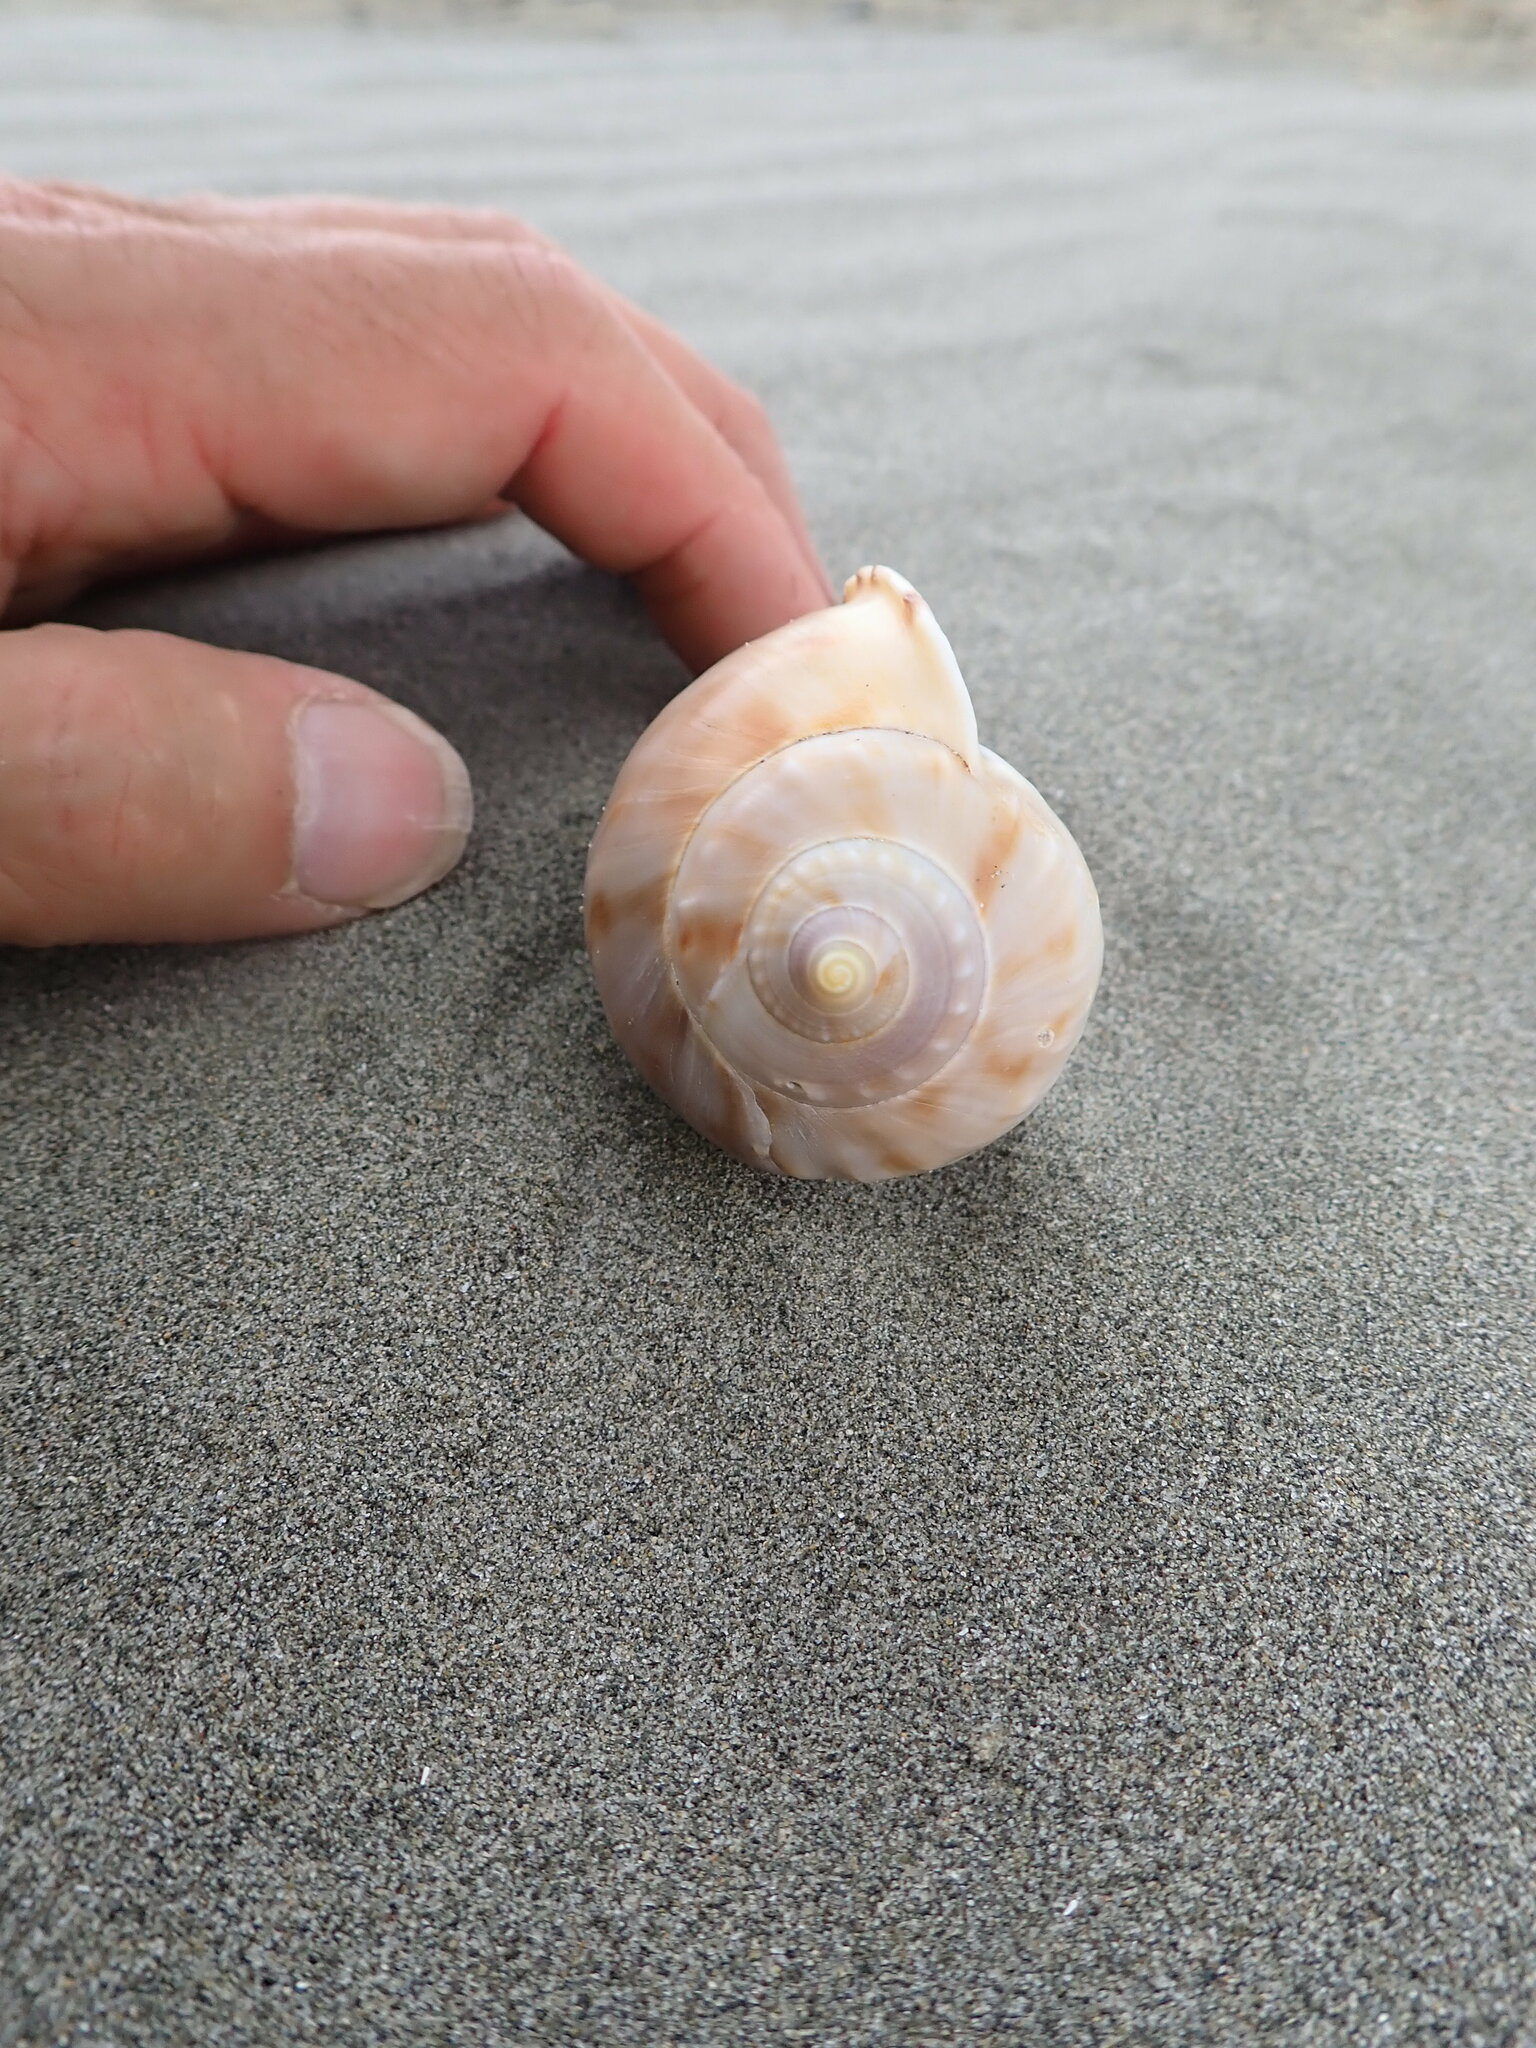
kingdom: Animalia
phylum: Mollusca
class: Gastropoda
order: Littorinimorpha
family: Cassidae
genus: Semicassis
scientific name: Semicassis pyrum
